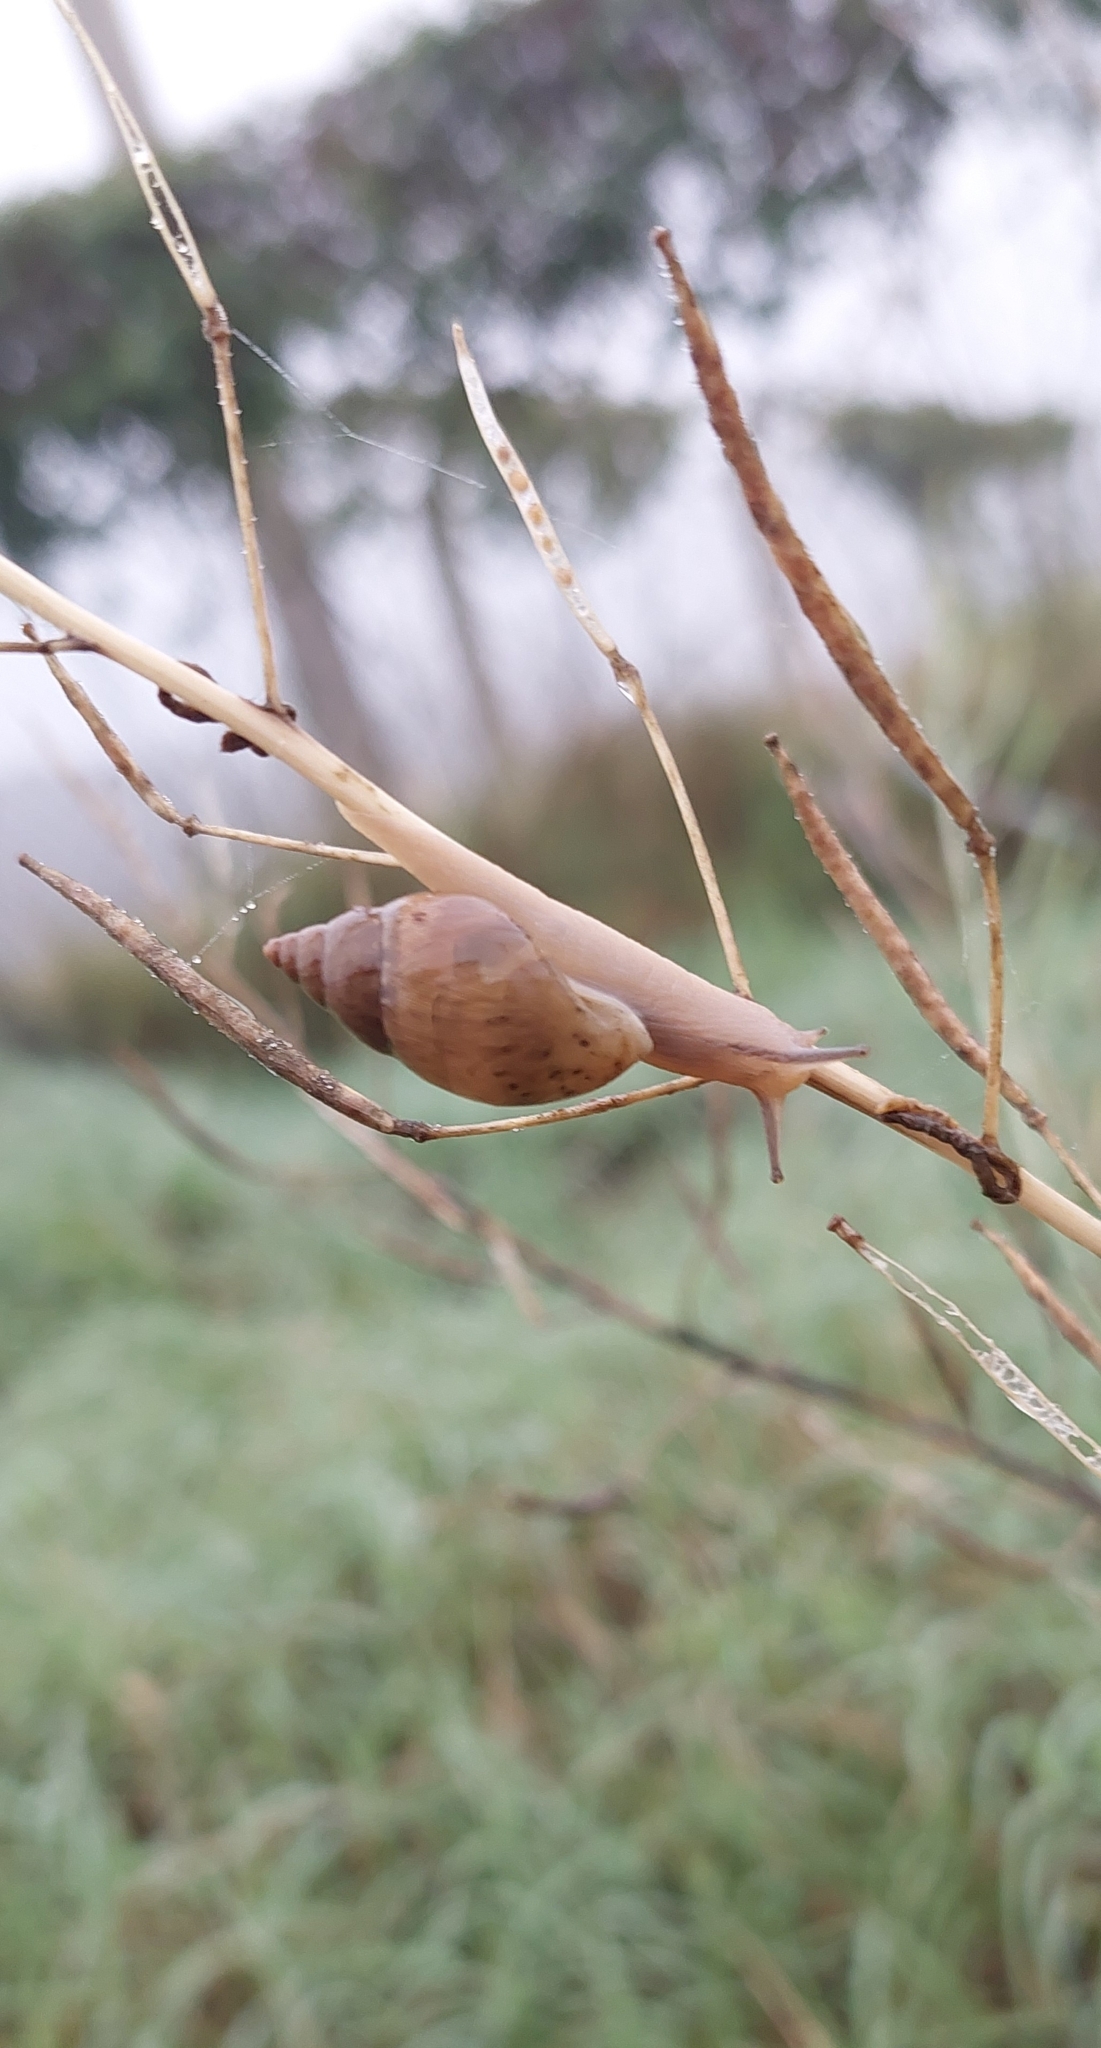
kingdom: Animalia
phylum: Mollusca
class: Gastropoda
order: Stylommatophora
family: Bulimulidae
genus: Bulimulus
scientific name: Bulimulus bonariensis
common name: Snail
